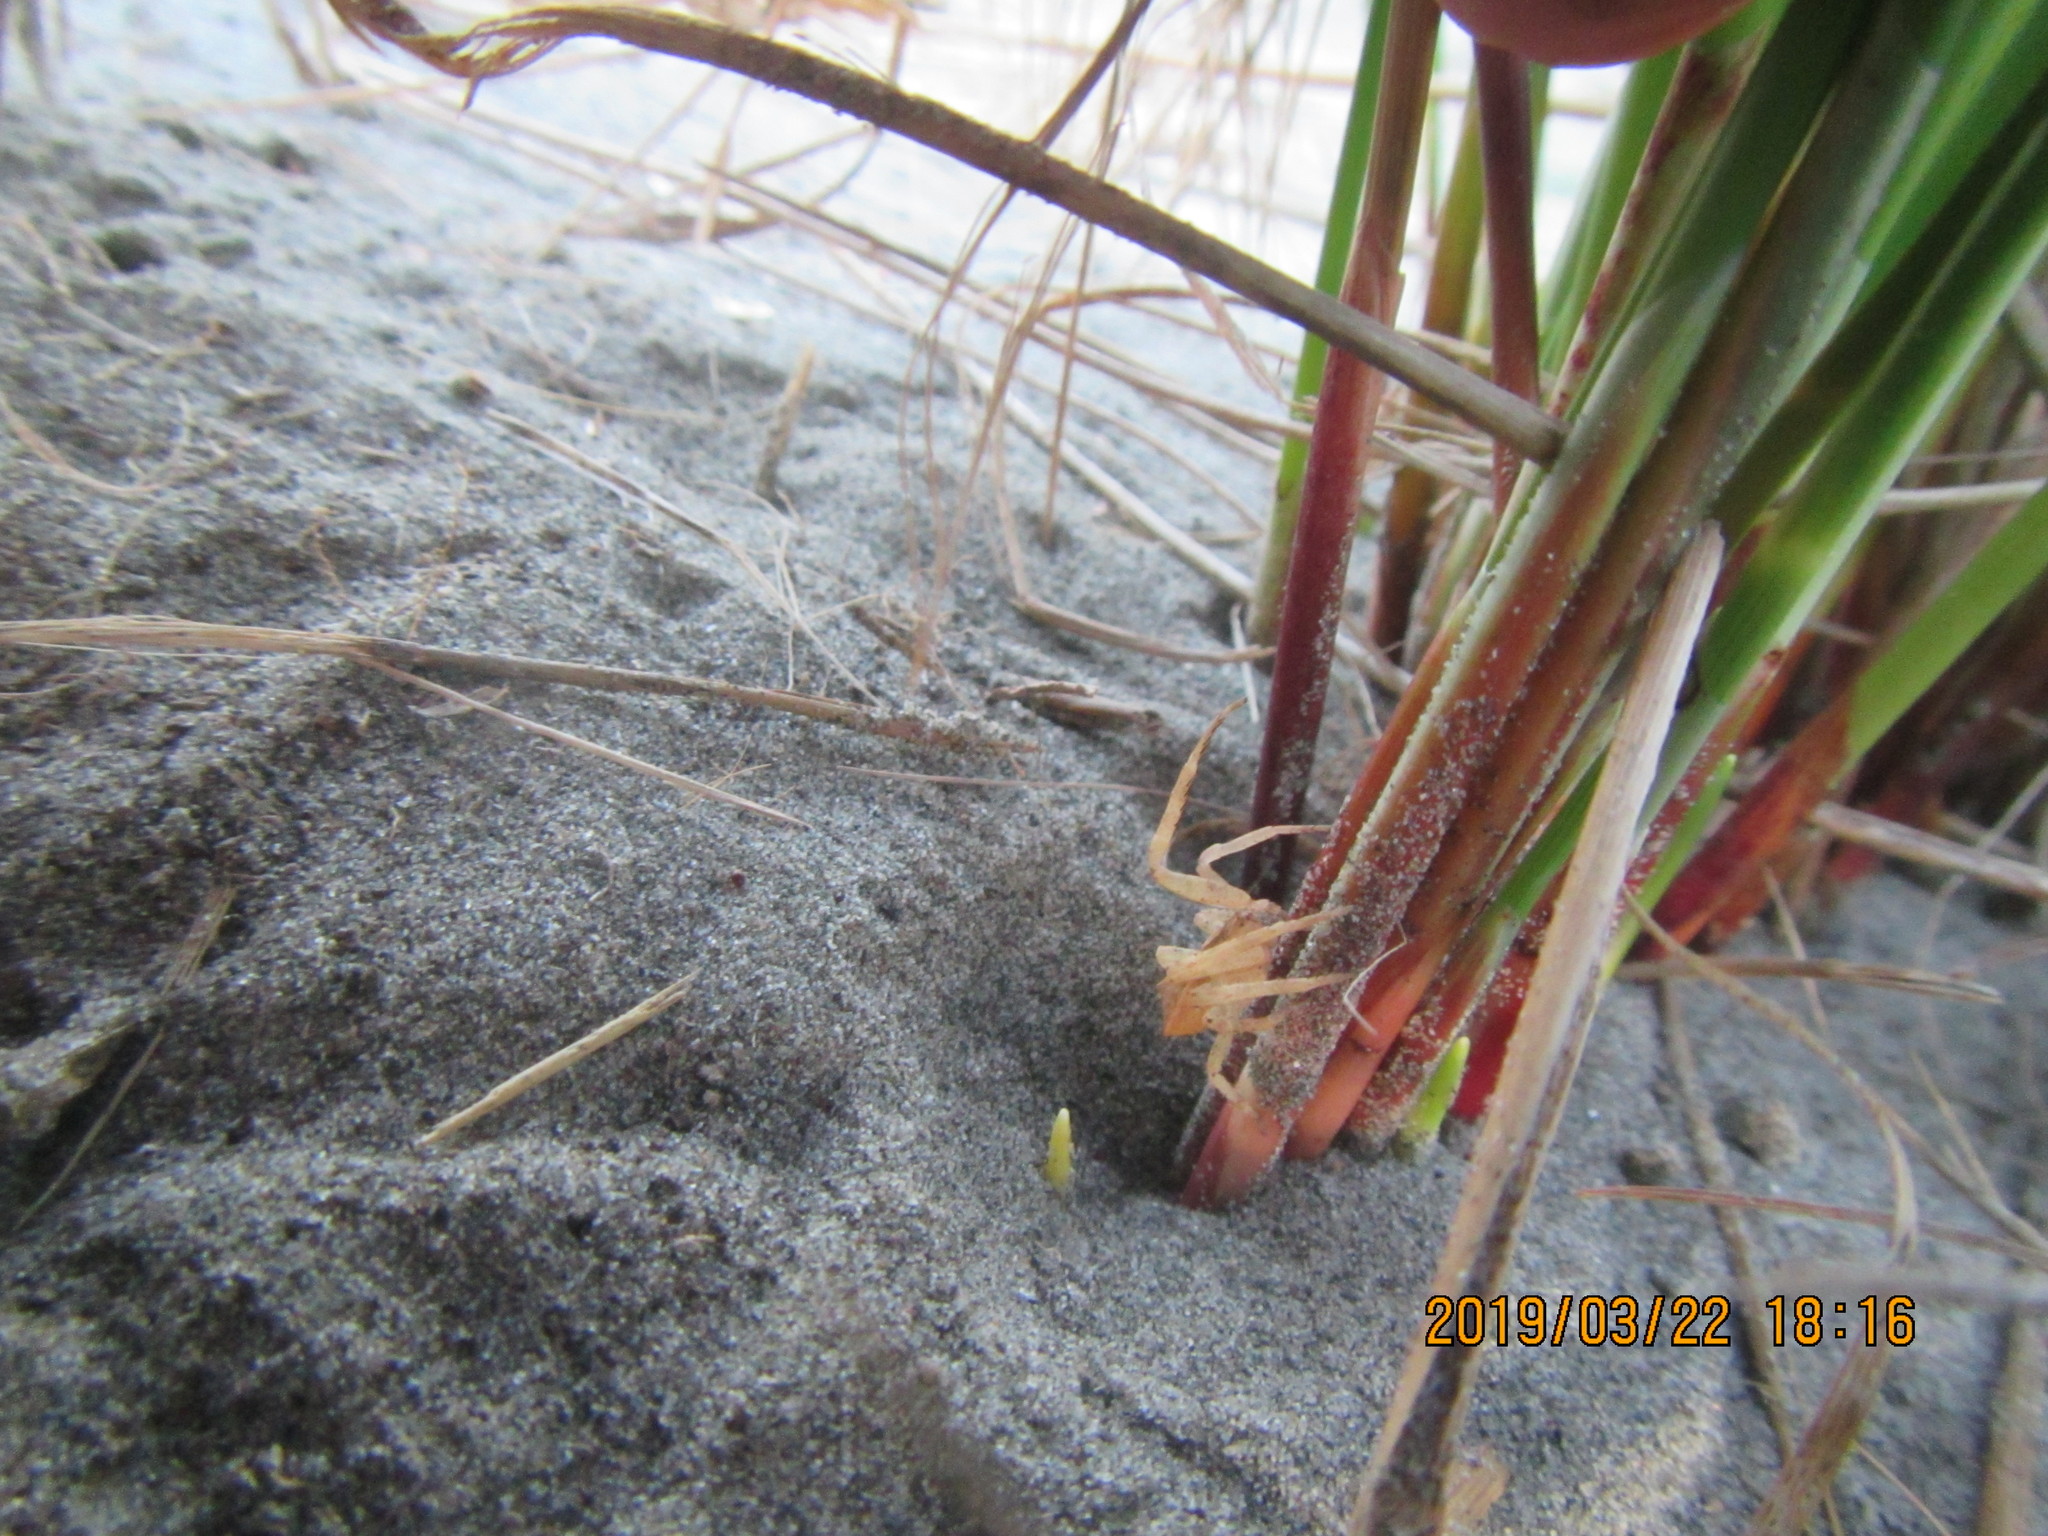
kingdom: Animalia
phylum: Arthropoda
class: Arachnida
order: Araneae
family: Thomisidae
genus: Sidymella
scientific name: Sidymella trapezia
